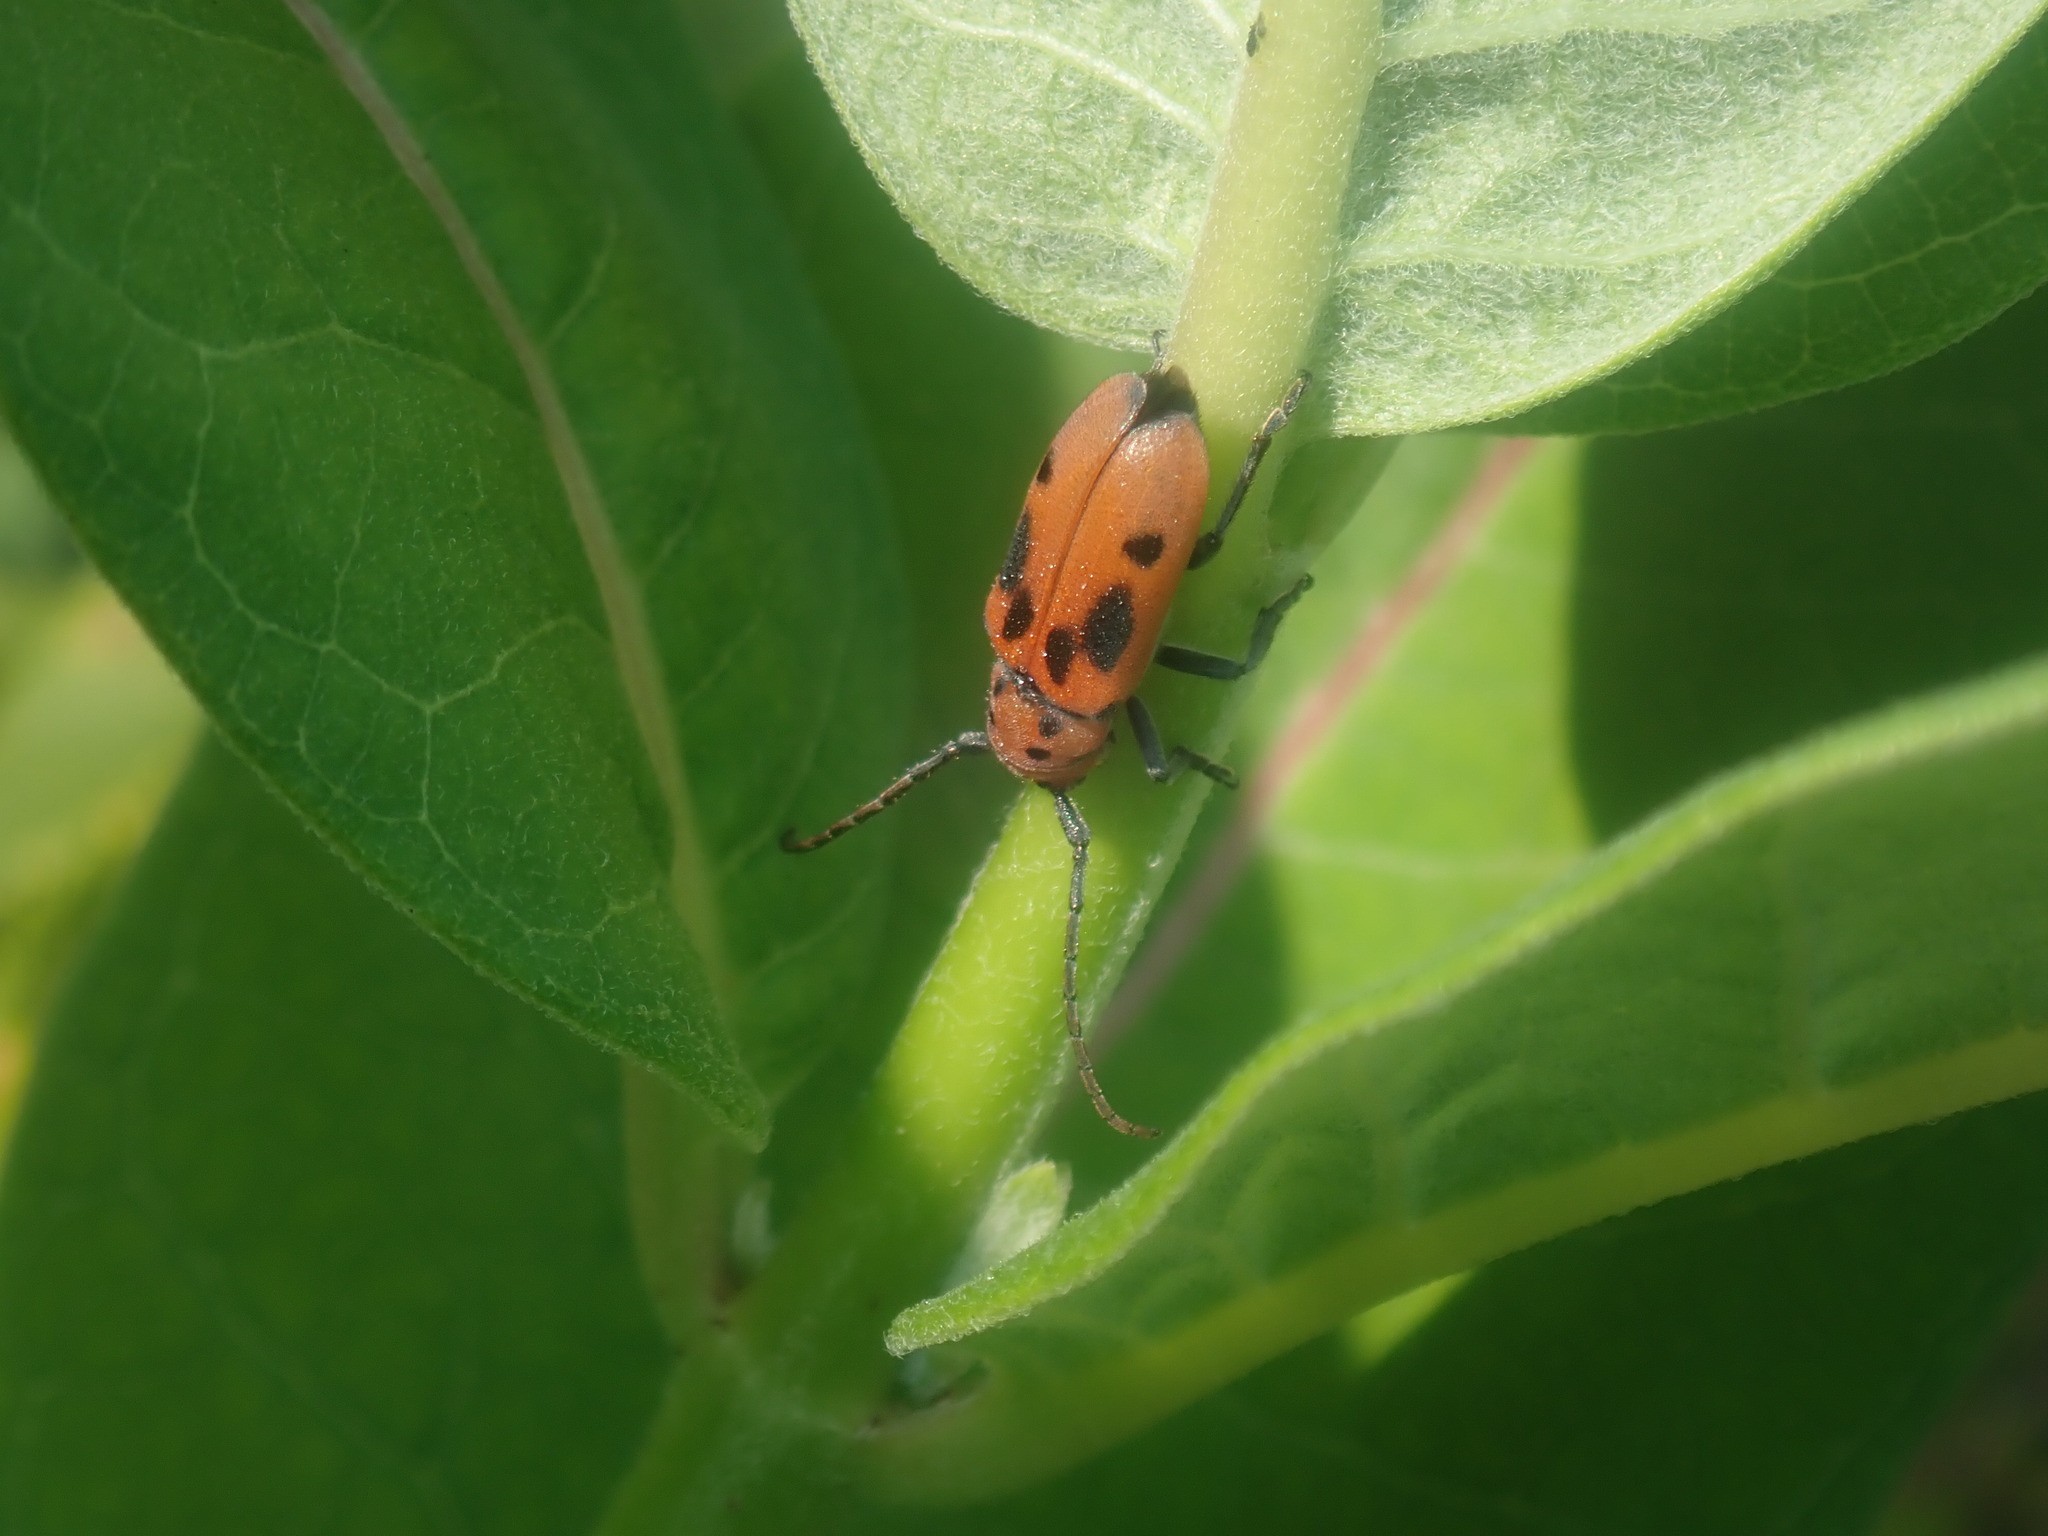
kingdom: Animalia
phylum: Arthropoda
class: Insecta
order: Coleoptera
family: Cerambycidae
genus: Tetraopes
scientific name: Tetraopes tetrophthalmus
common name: Red milkweed beetle
